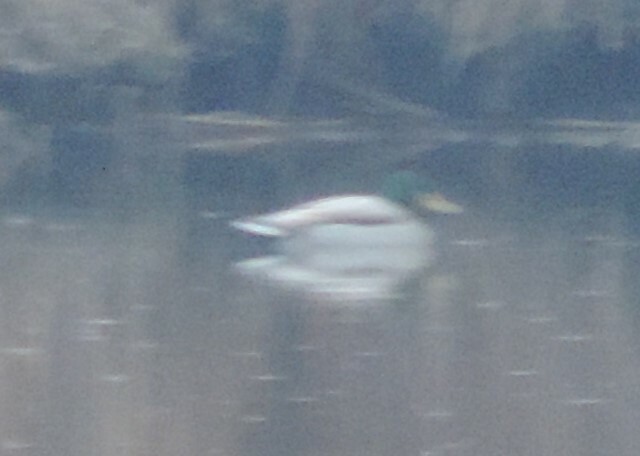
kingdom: Animalia
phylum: Chordata
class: Aves
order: Anseriformes
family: Anatidae
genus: Anas
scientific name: Anas platyrhynchos
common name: Mallard
